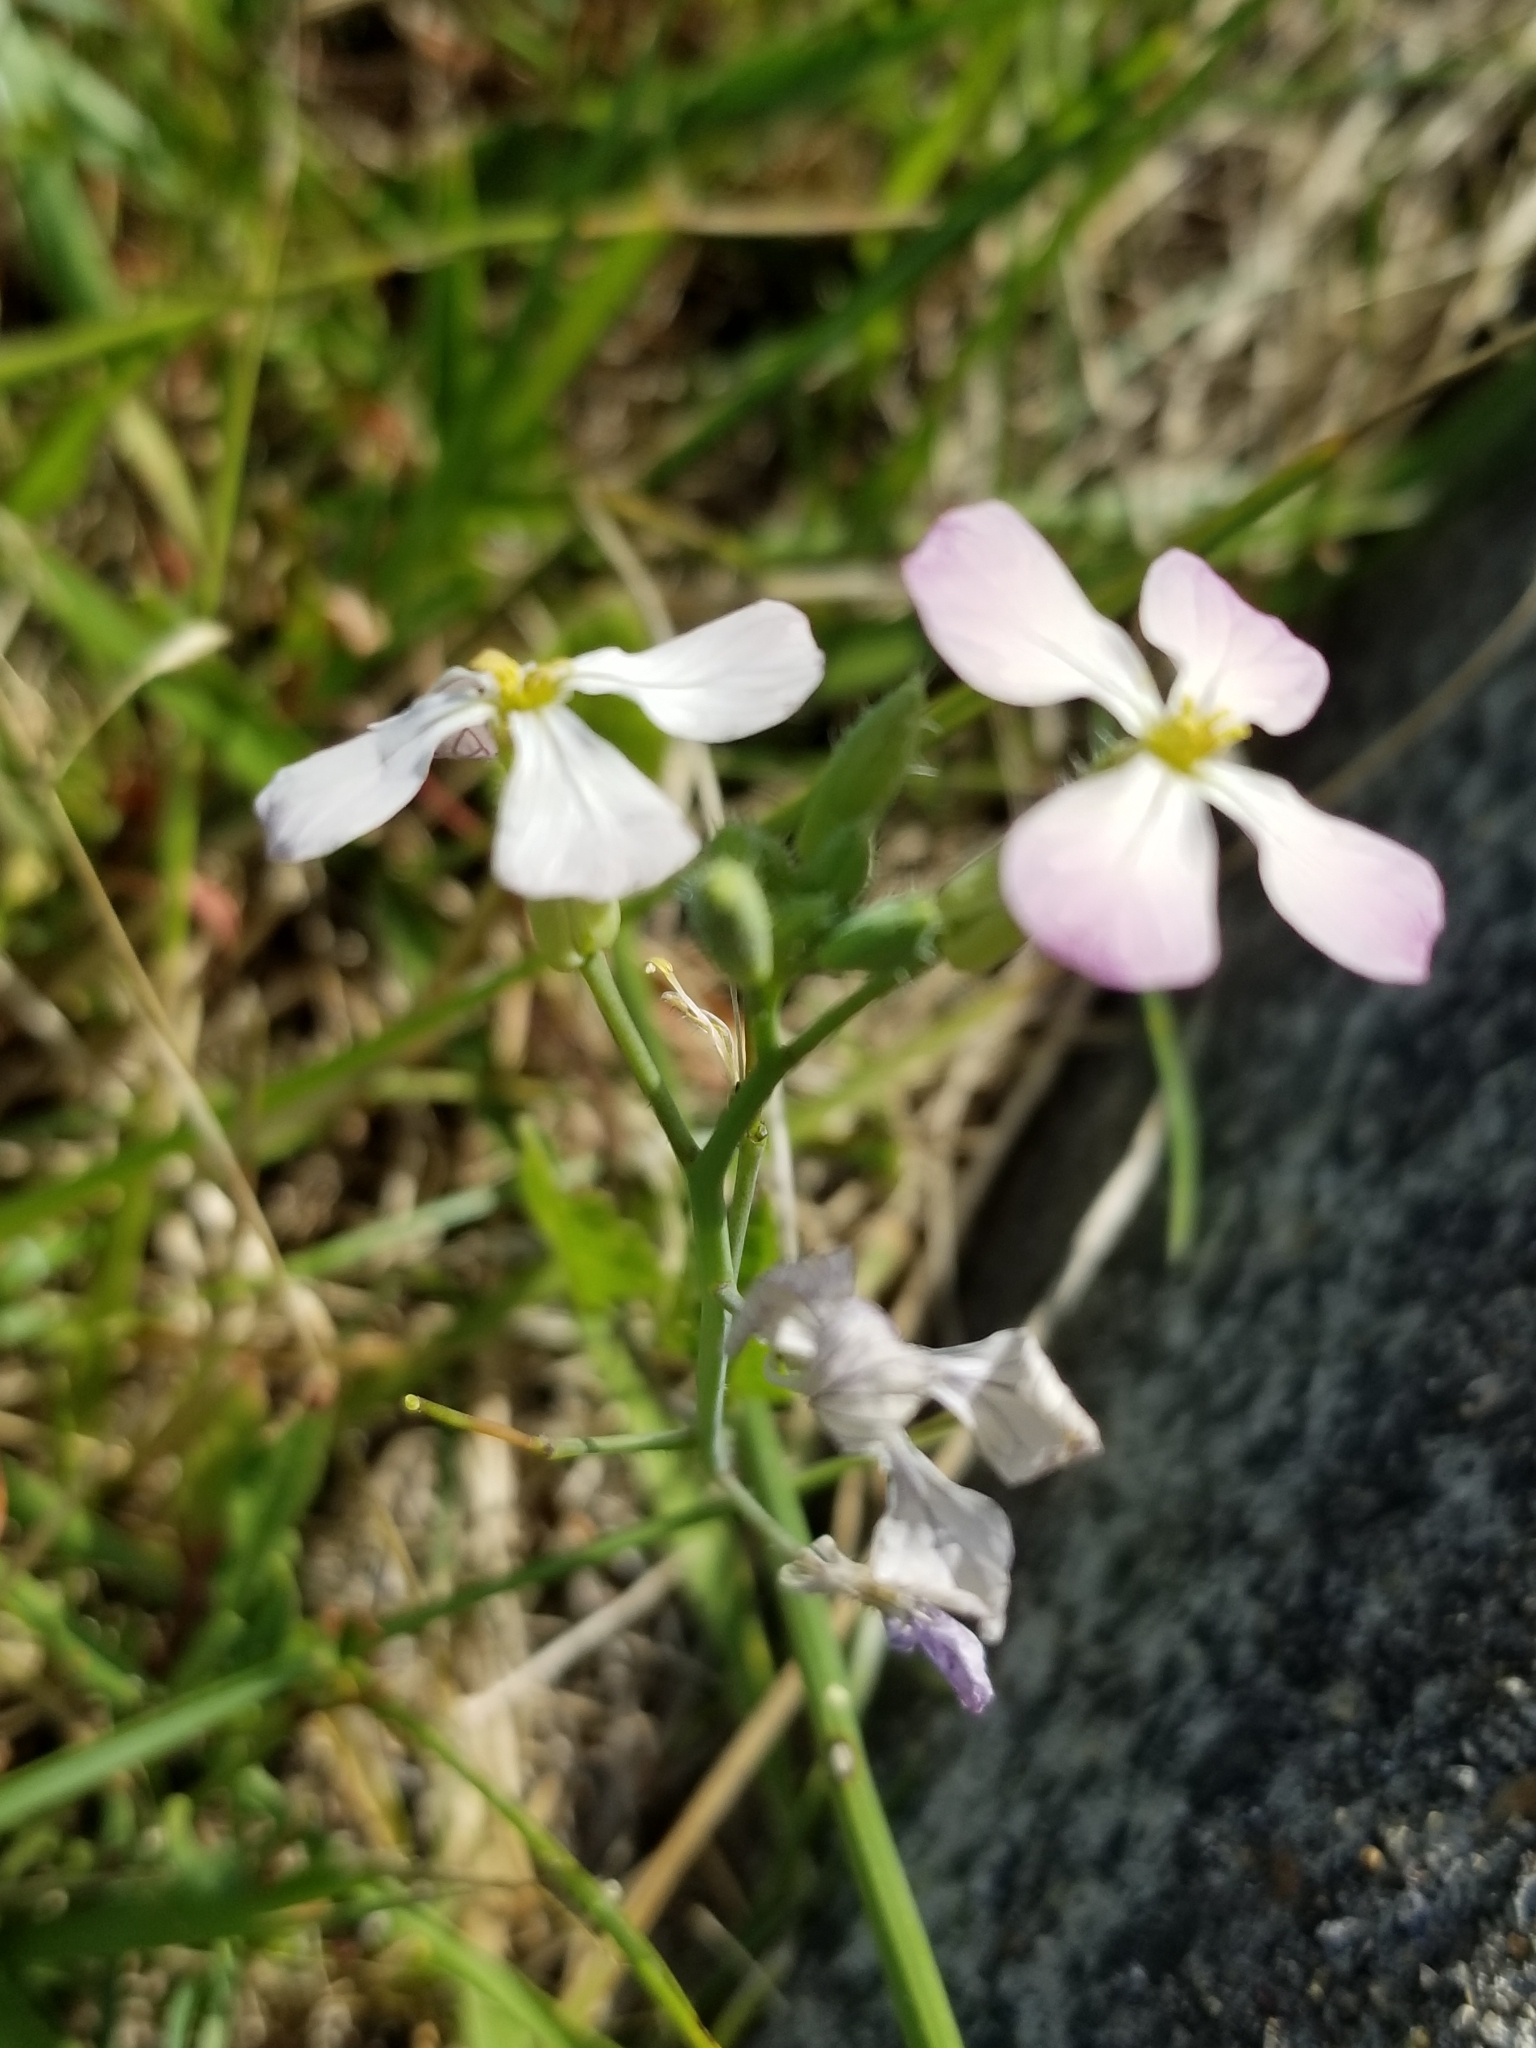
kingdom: Plantae
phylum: Tracheophyta
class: Magnoliopsida
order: Brassicales
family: Brassicaceae
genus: Raphanus
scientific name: Raphanus sativus
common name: Cultivated radish
